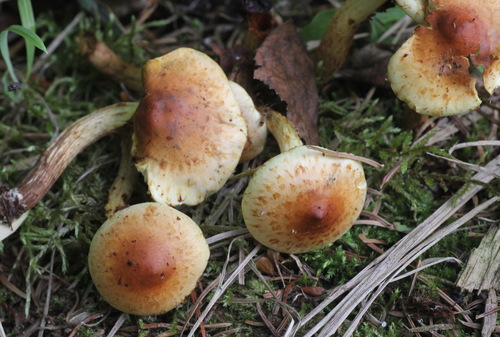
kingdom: Fungi
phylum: Basidiomycota
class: Agaricomycetes
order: Agaricales
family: Strophariaceae
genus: Pholiota
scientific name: Pholiota elegans
